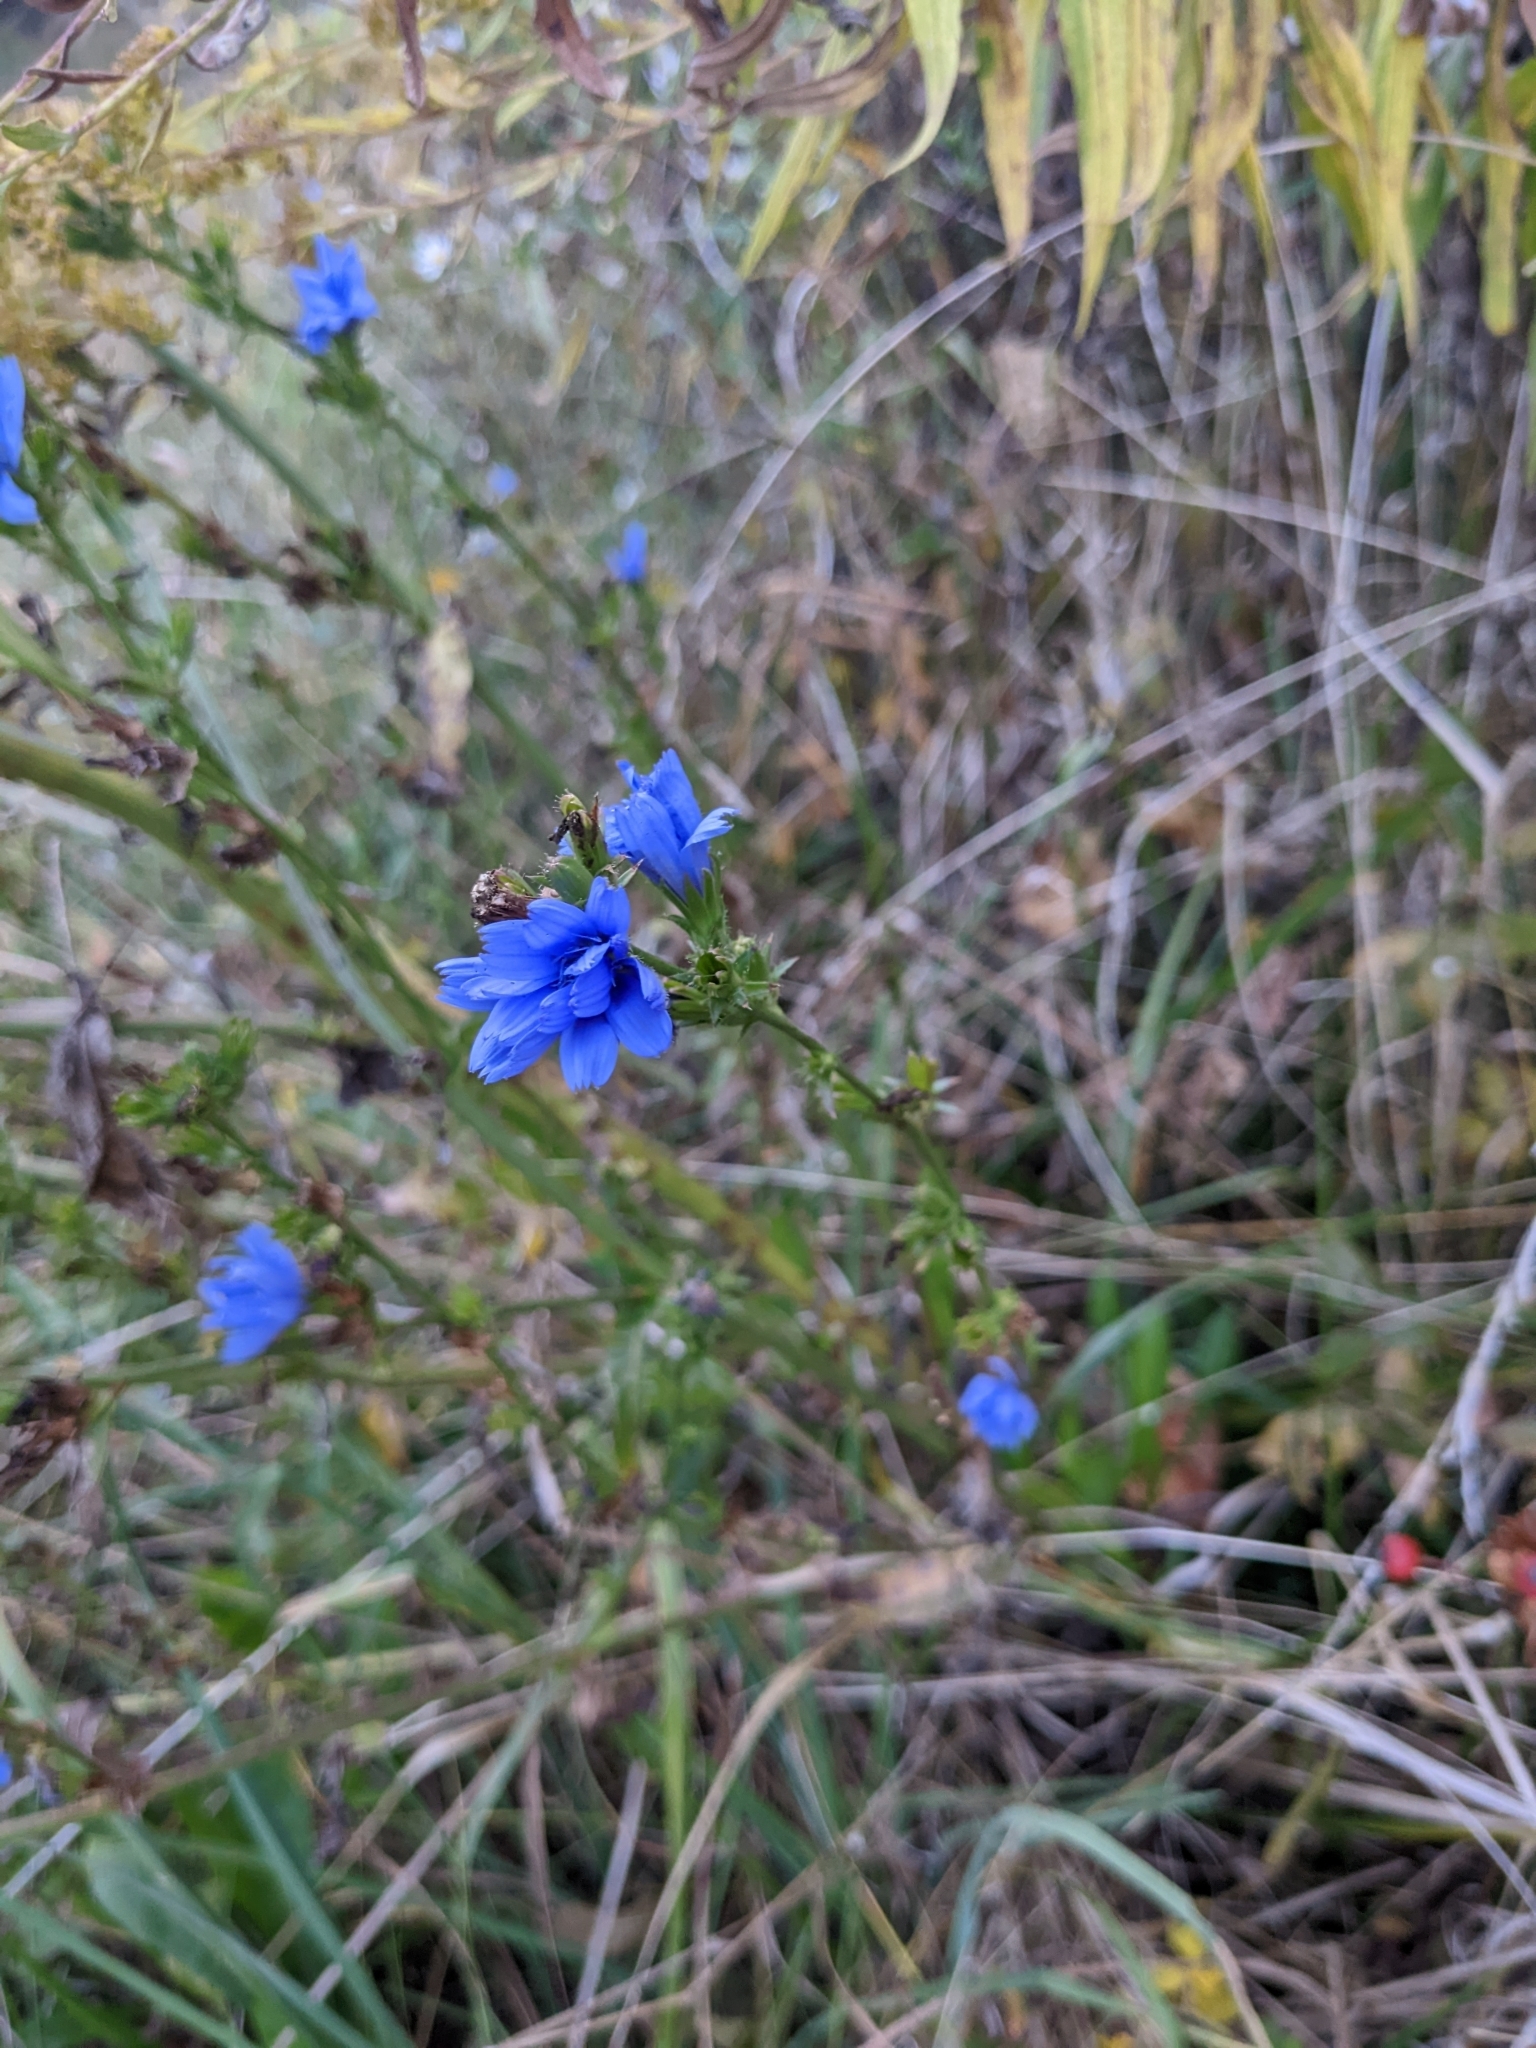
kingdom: Plantae
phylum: Tracheophyta
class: Magnoliopsida
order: Asterales
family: Asteraceae
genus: Cichorium
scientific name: Cichorium intybus
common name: Chicory
